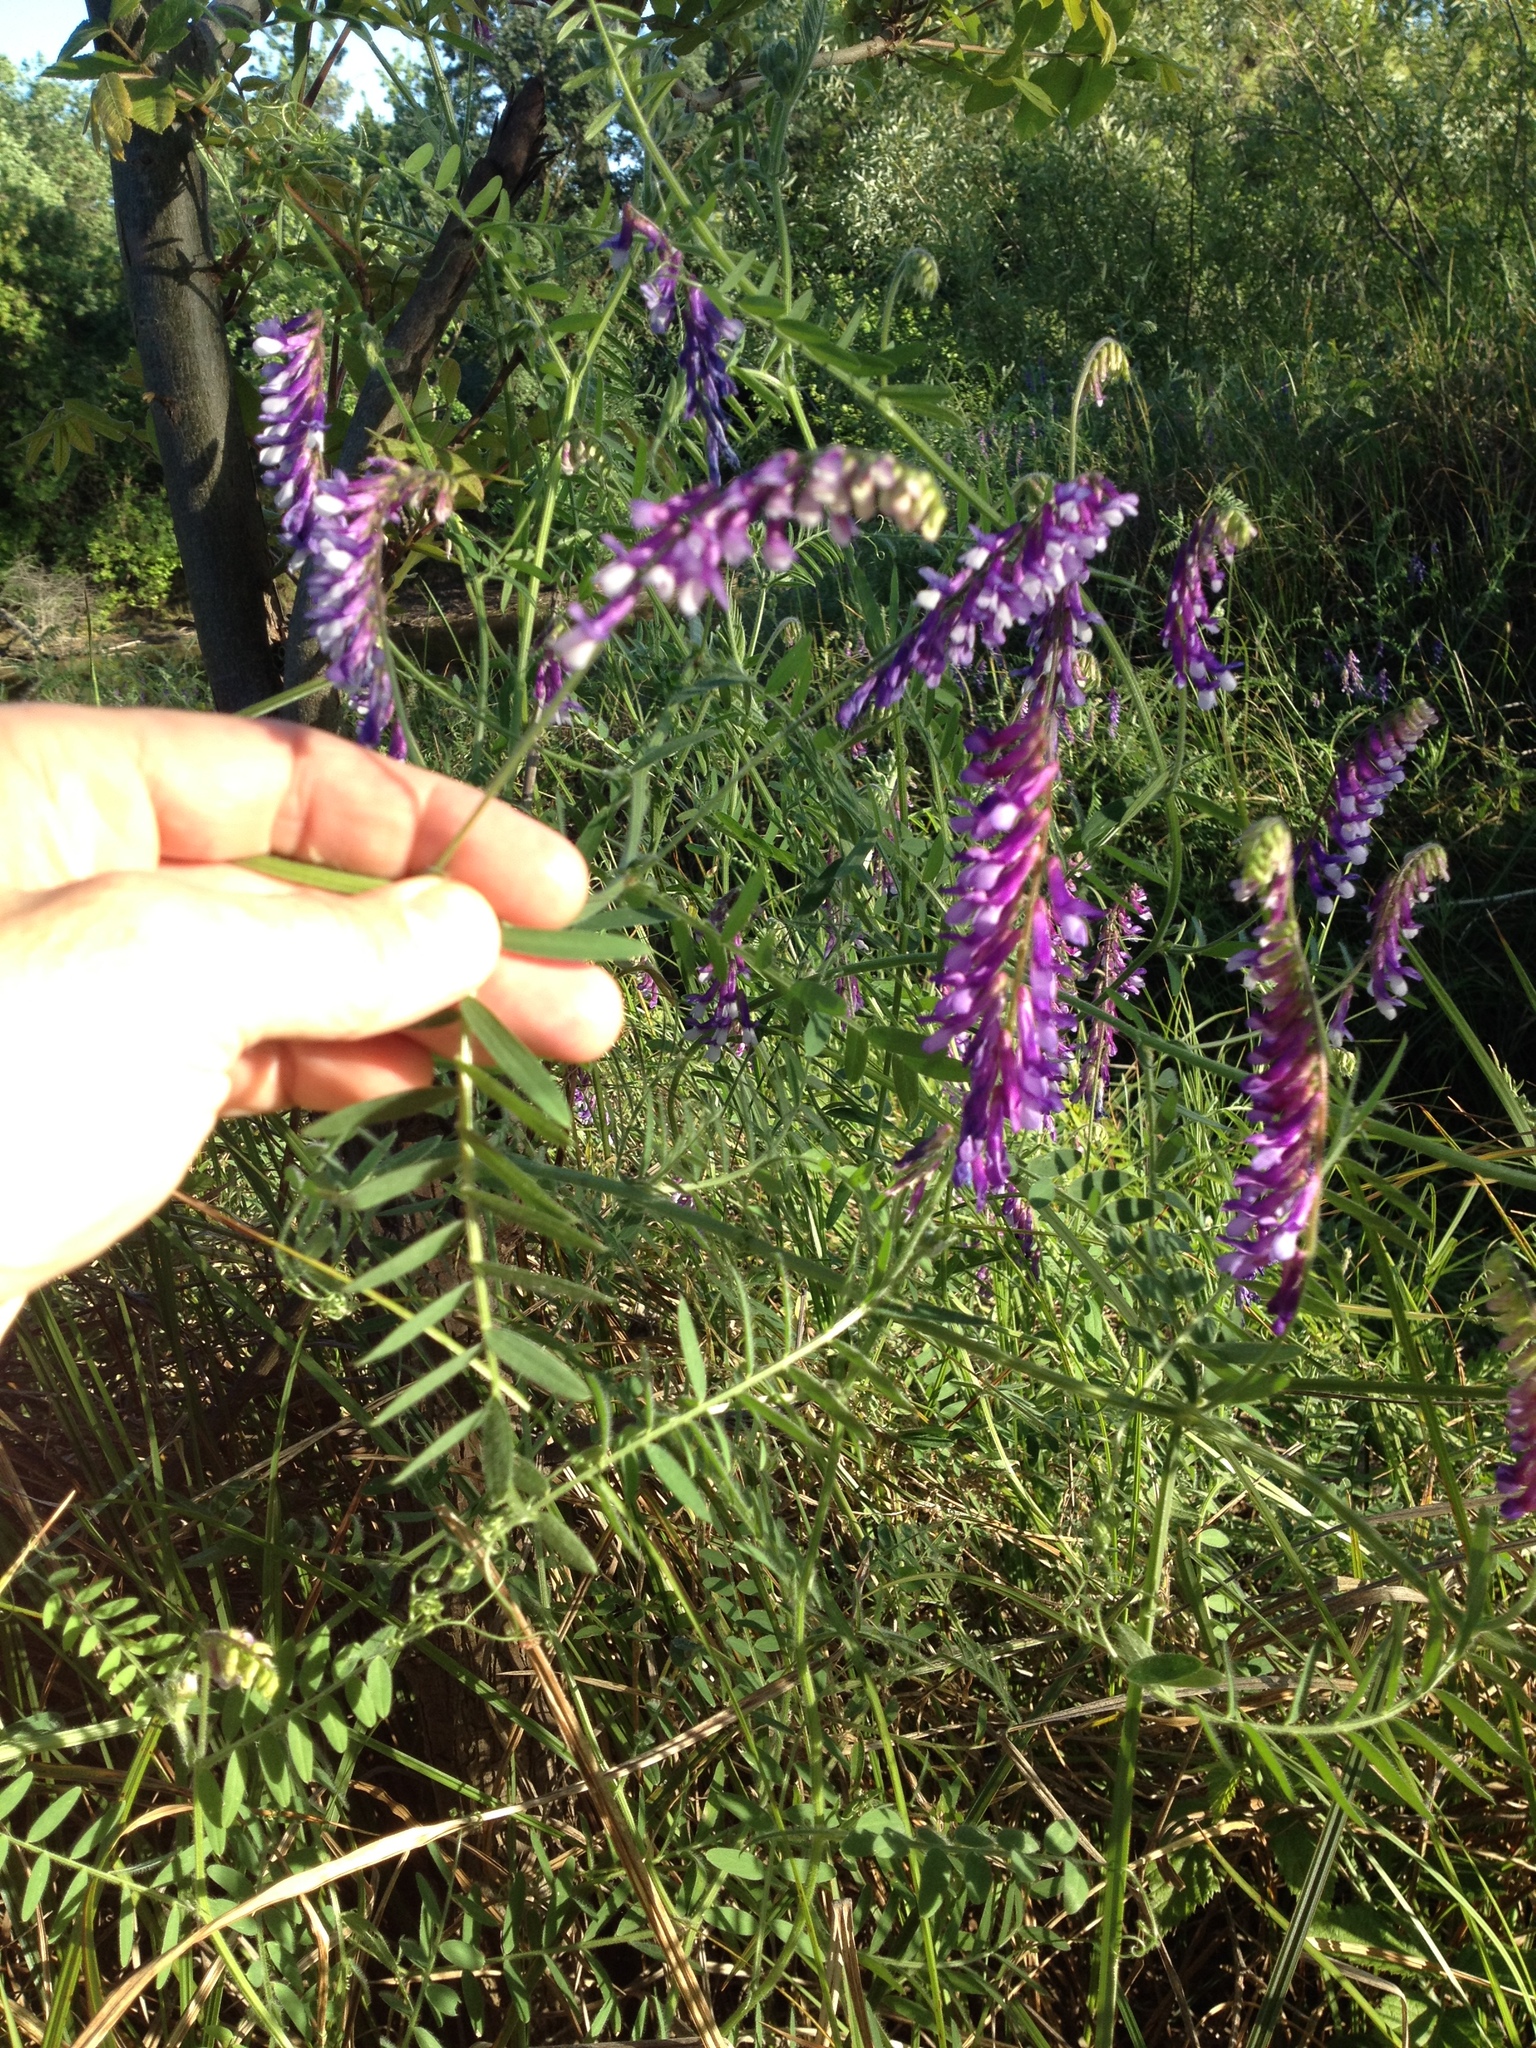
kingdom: Plantae
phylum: Tracheophyta
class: Magnoliopsida
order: Fabales
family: Fabaceae
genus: Vicia
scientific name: Vicia villosa
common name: Fodder vetch
